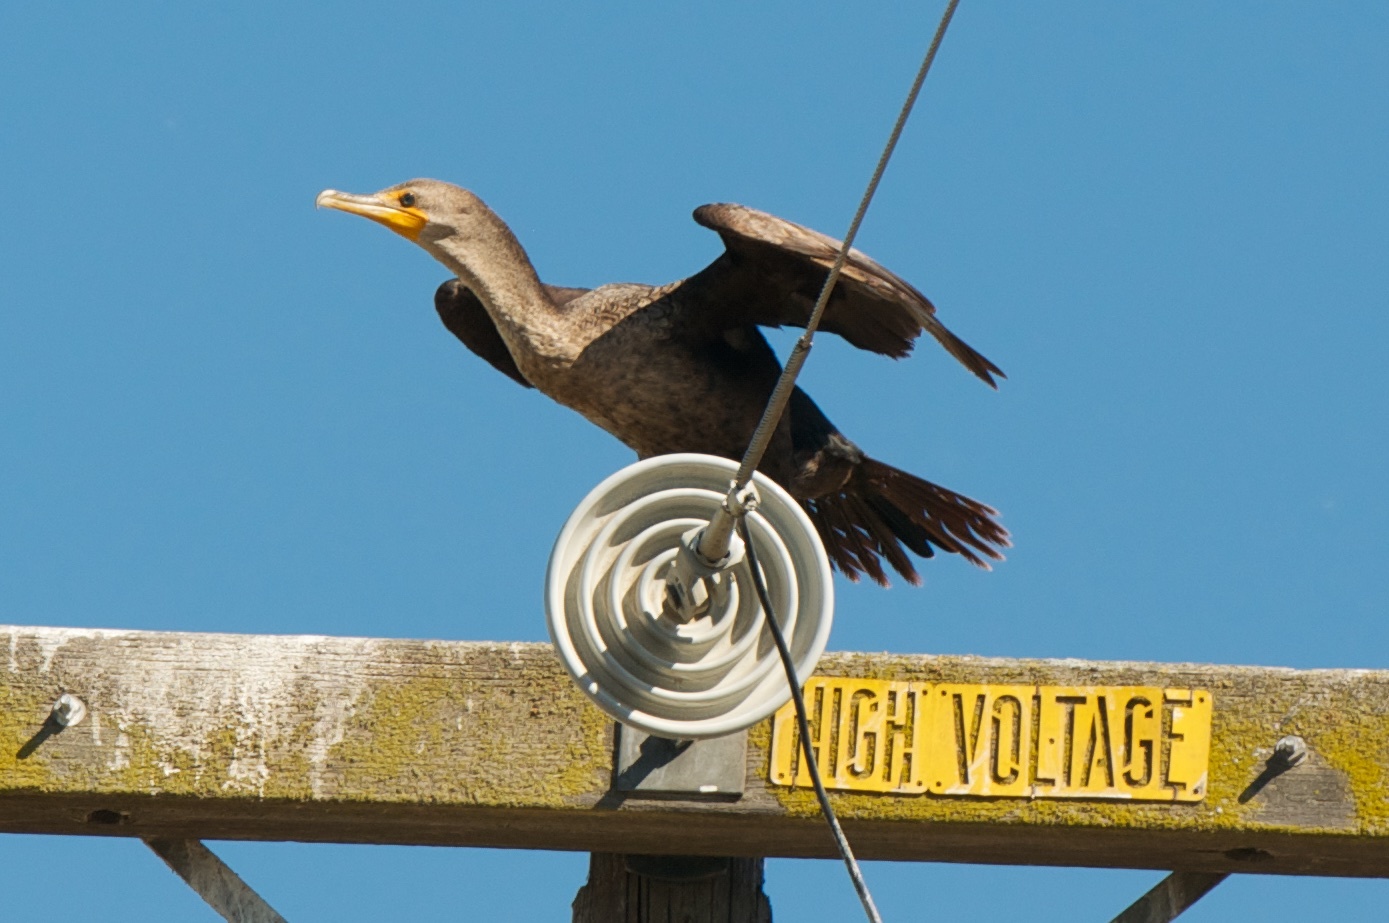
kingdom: Animalia
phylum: Chordata
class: Aves
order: Suliformes
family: Phalacrocoracidae
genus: Phalacrocorax
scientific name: Phalacrocorax auritus
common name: Double-crested cormorant
